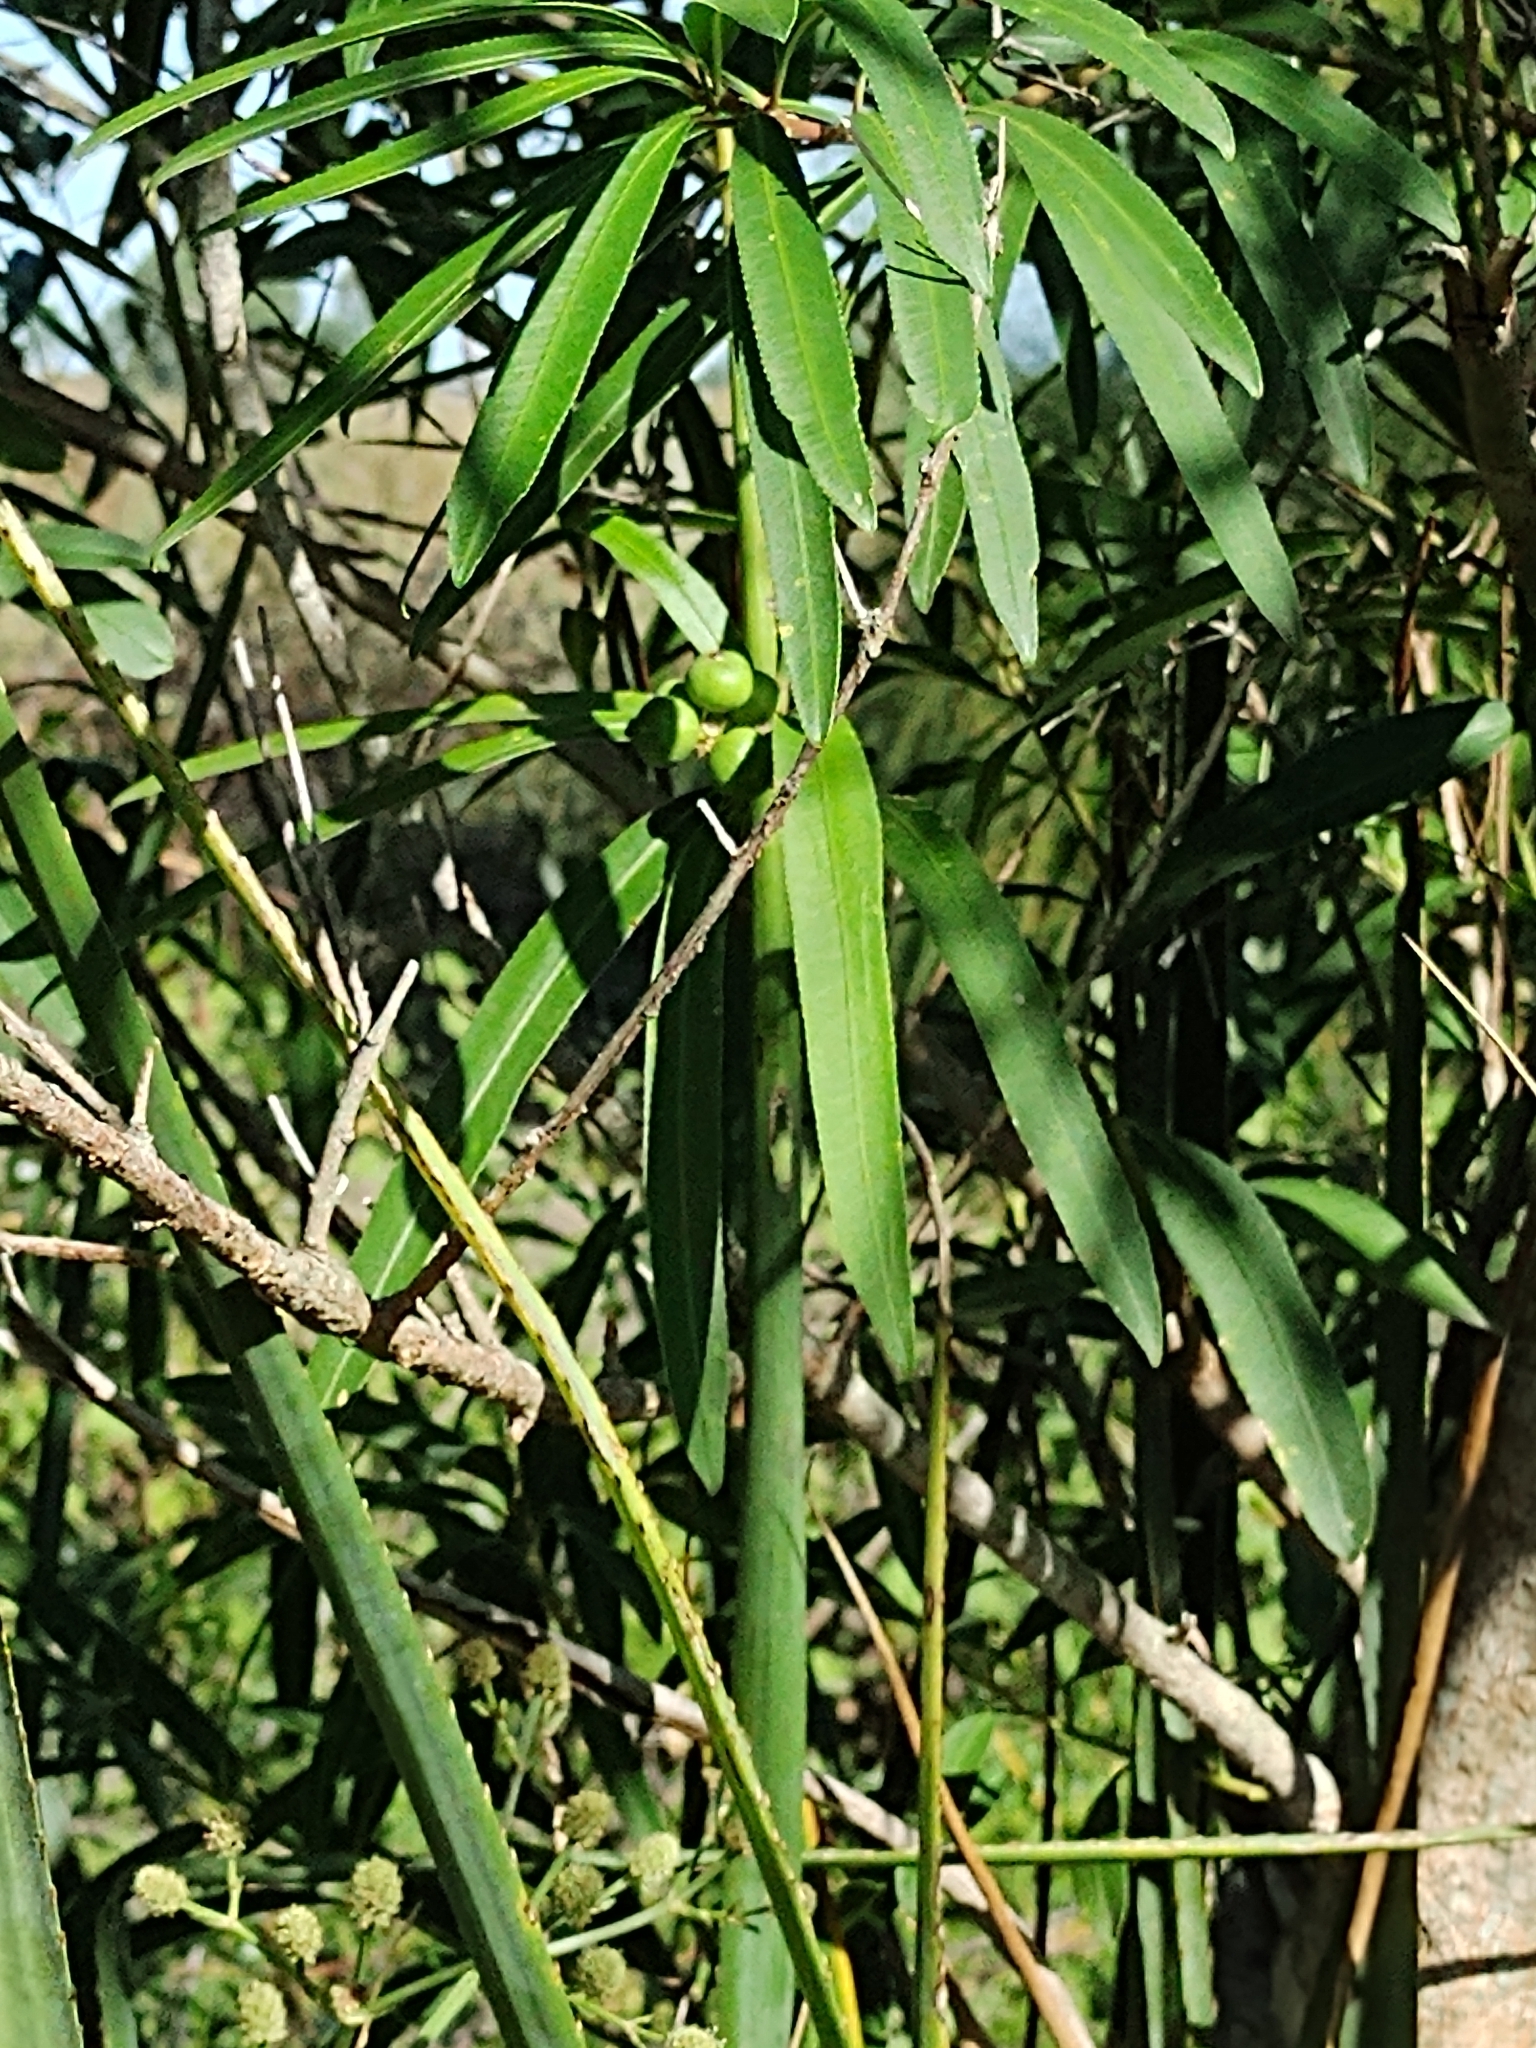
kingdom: Plantae
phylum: Tracheophyta
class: Magnoliopsida
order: Malpighiales
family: Euphorbiaceae
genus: Sapium
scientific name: Sapium haematospermum
